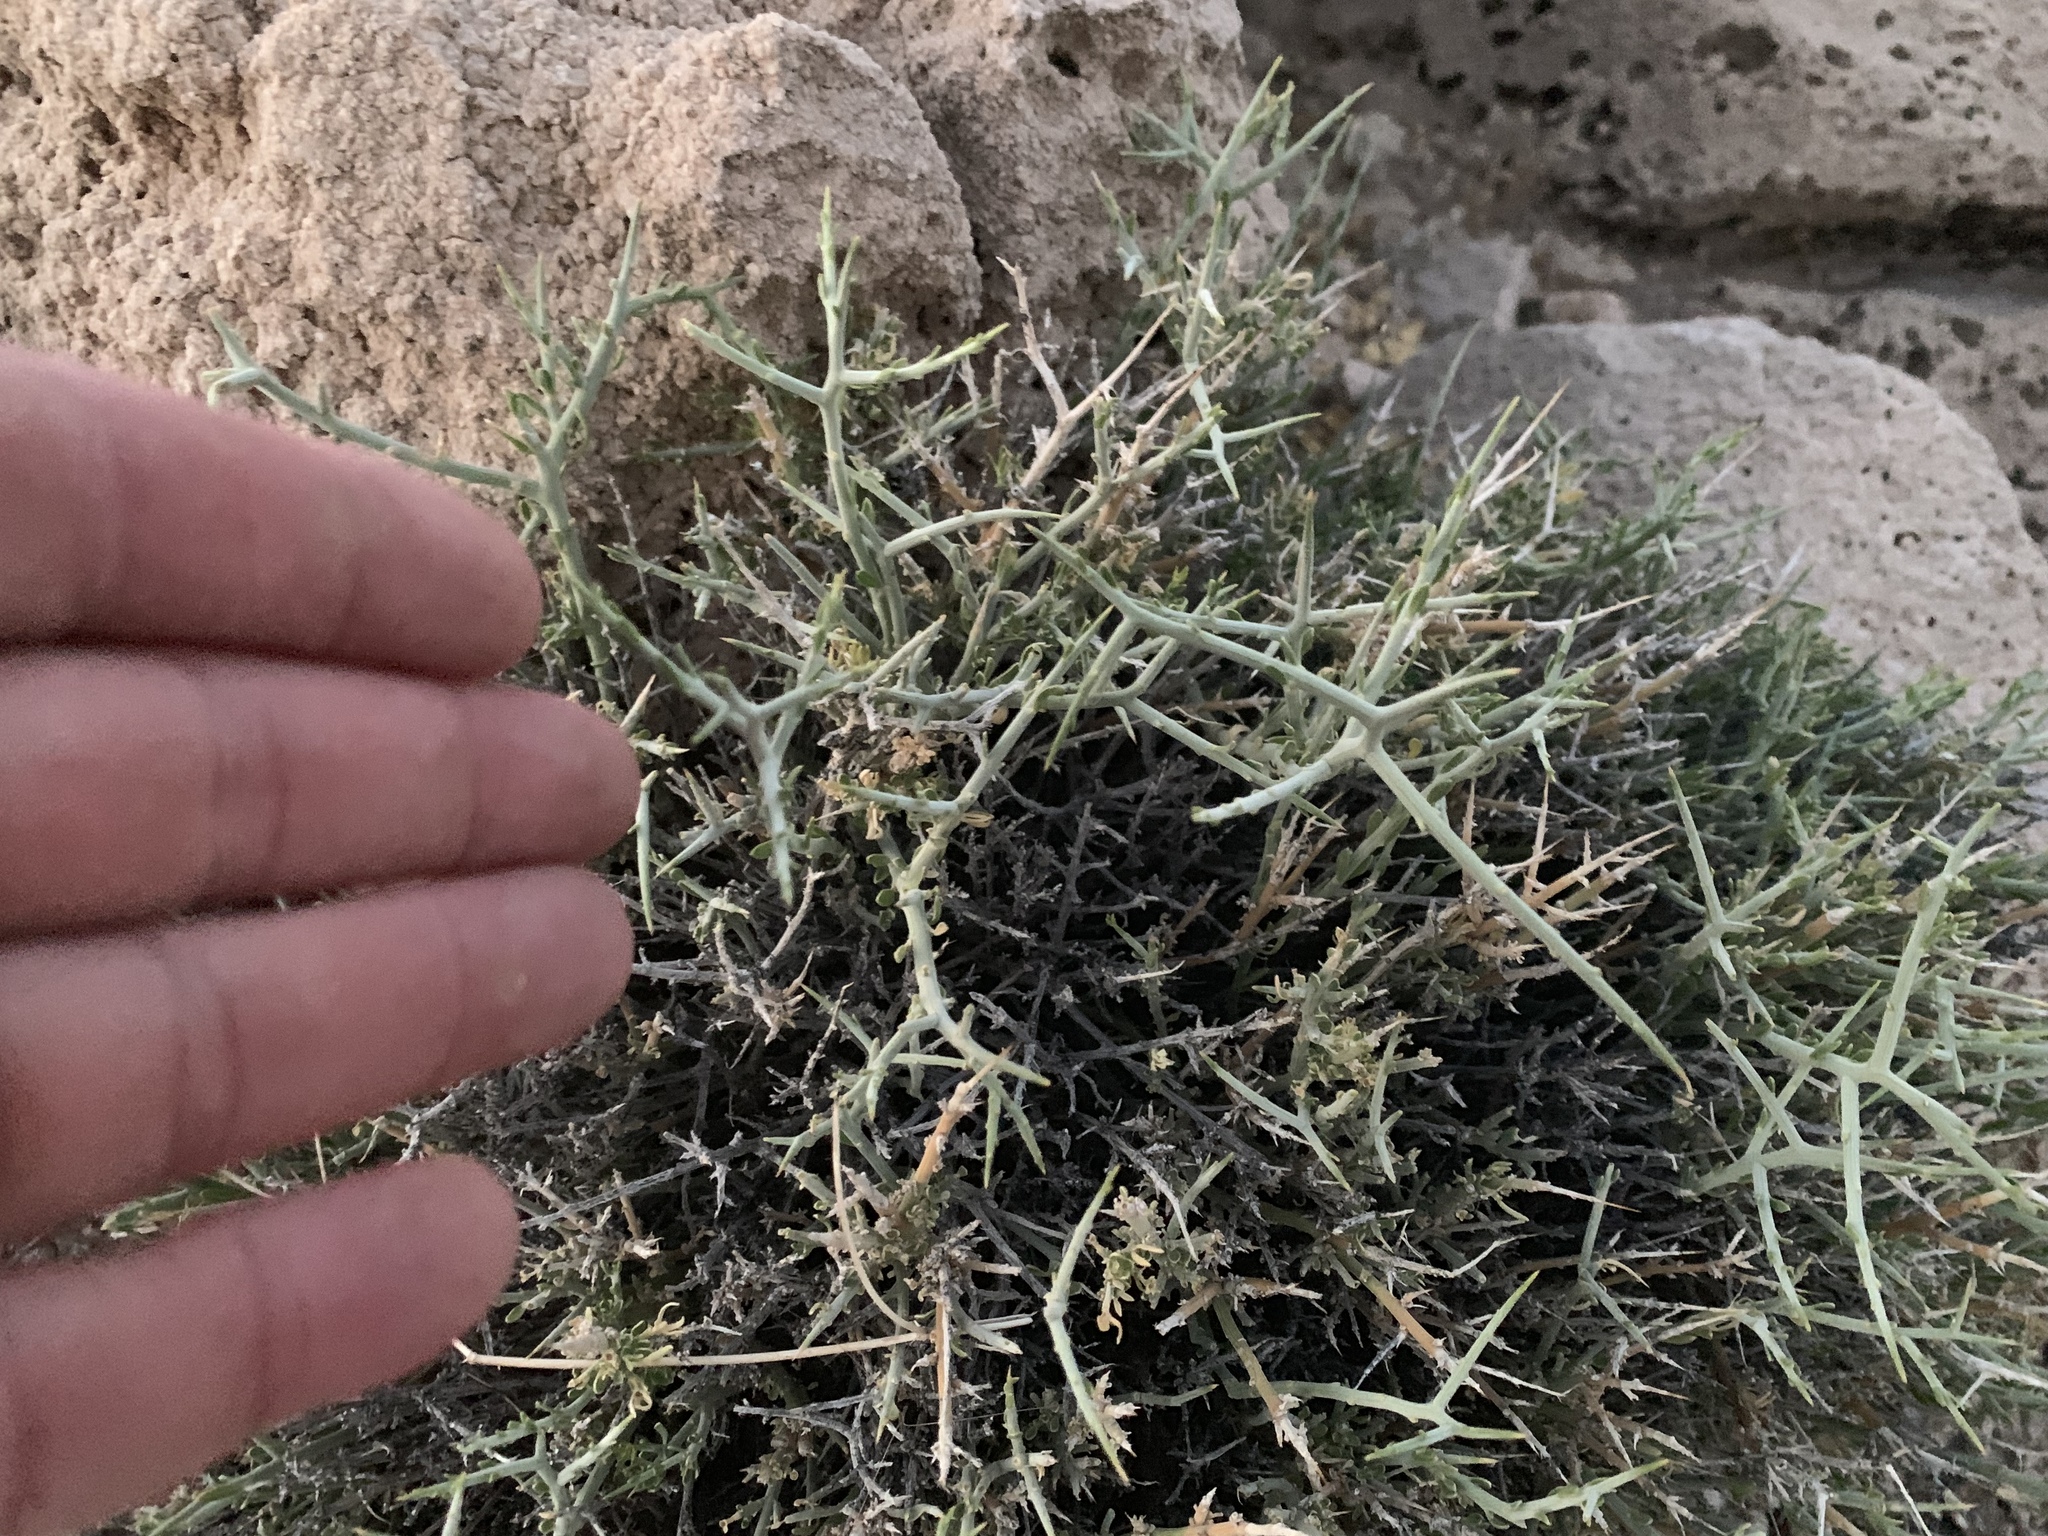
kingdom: Plantae
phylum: Tracheophyta
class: Magnoliopsida
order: Lamiales
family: Oleaceae
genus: Menodora
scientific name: Menodora spinescens
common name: Spiny menodora
